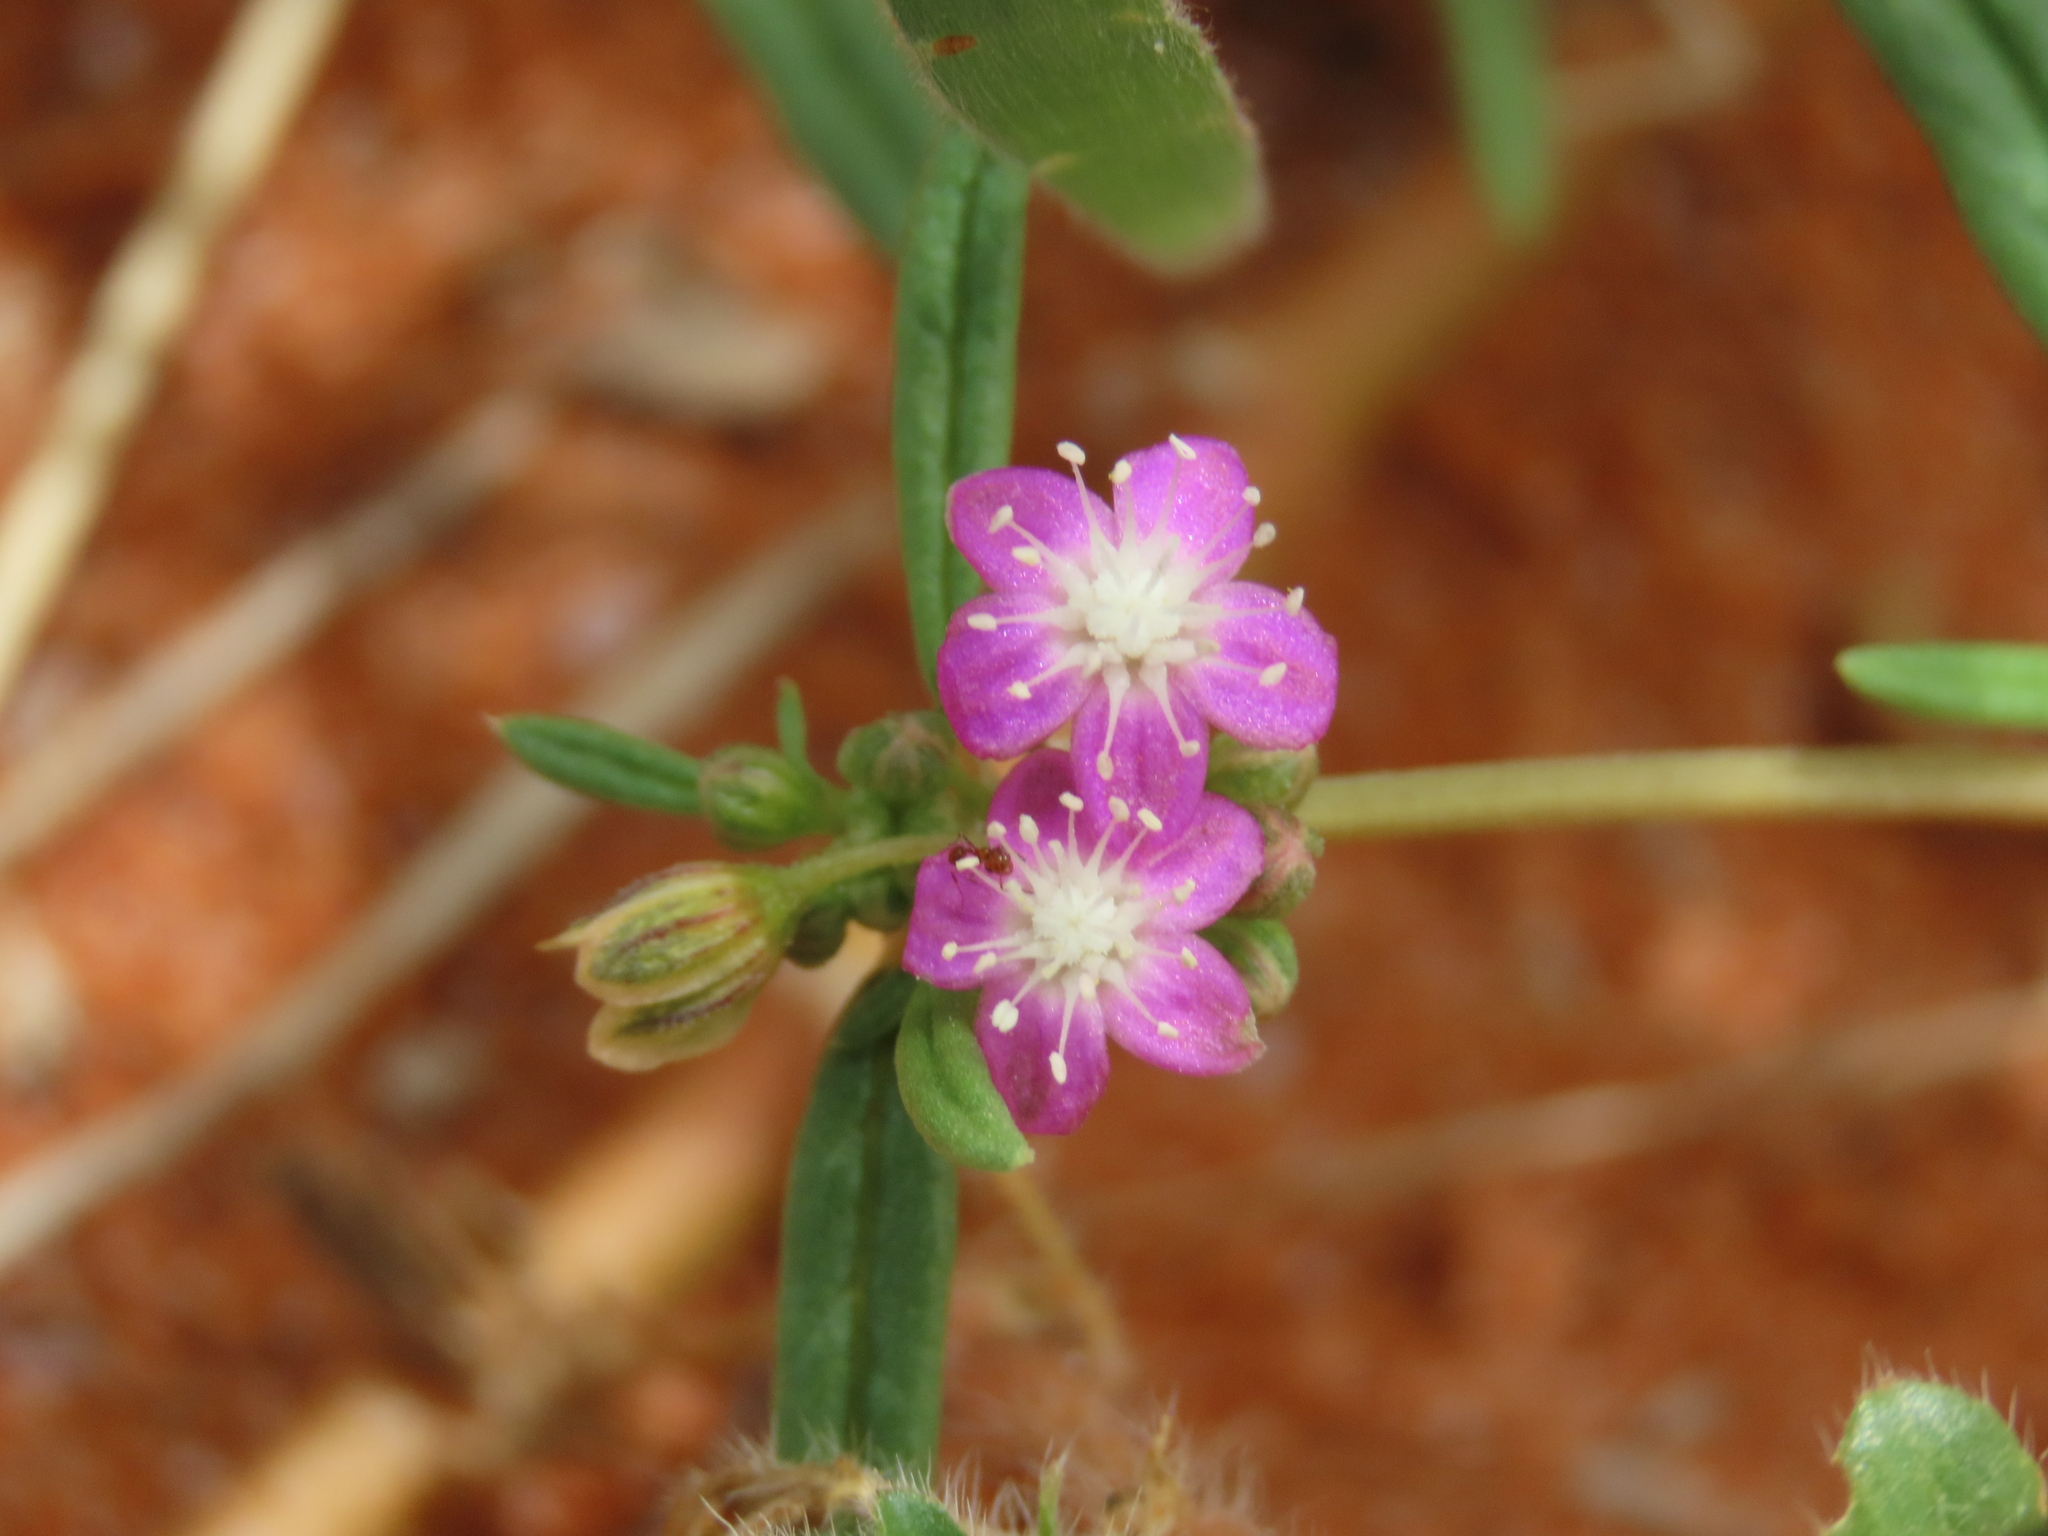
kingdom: Plantae
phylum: Tracheophyta
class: Magnoliopsida
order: Caryophyllales
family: Gisekiaceae
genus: Gisekia
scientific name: Gisekia africana
